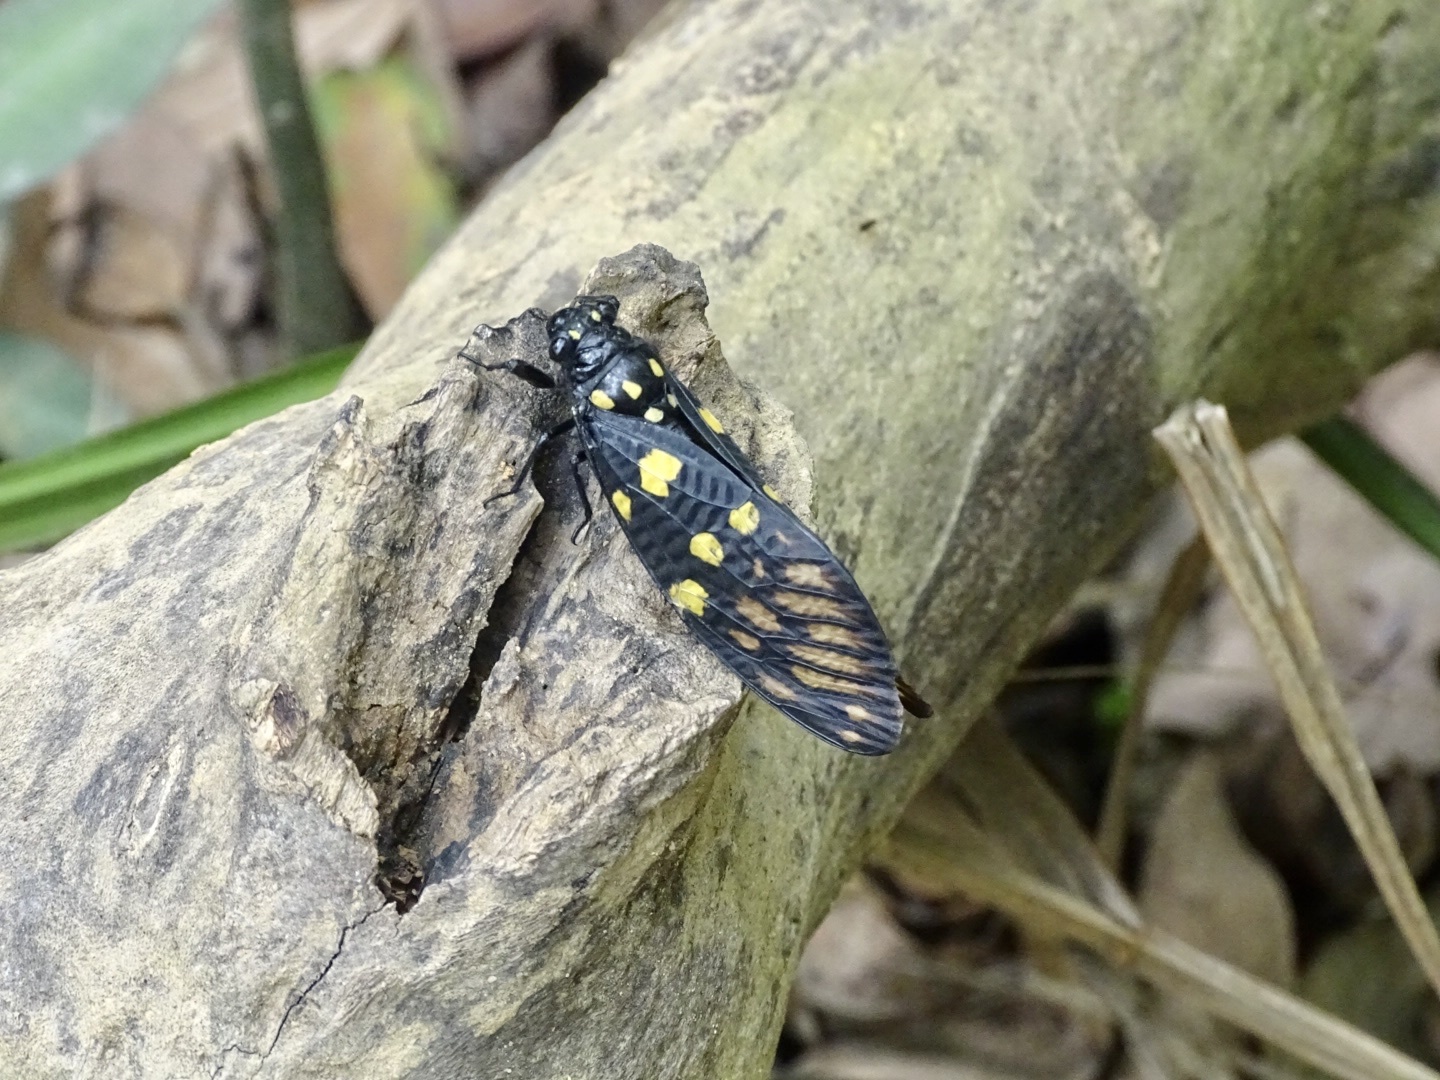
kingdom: Animalia
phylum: Arthropoda
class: Insecta
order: Hemiptera
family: Cicadidae
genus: Gaeana
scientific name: Gaeana maculata
